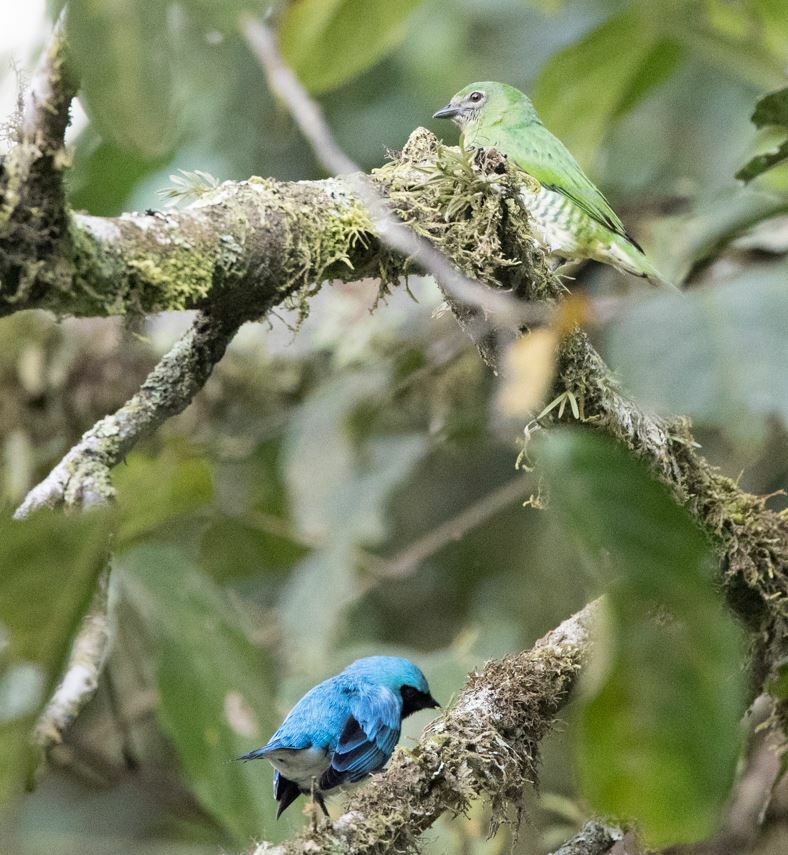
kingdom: Animalia
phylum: Chordata
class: Aves
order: Passeriformes
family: Thraupidae
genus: Tersina
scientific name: Tersina viridis
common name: Swallow tanager
